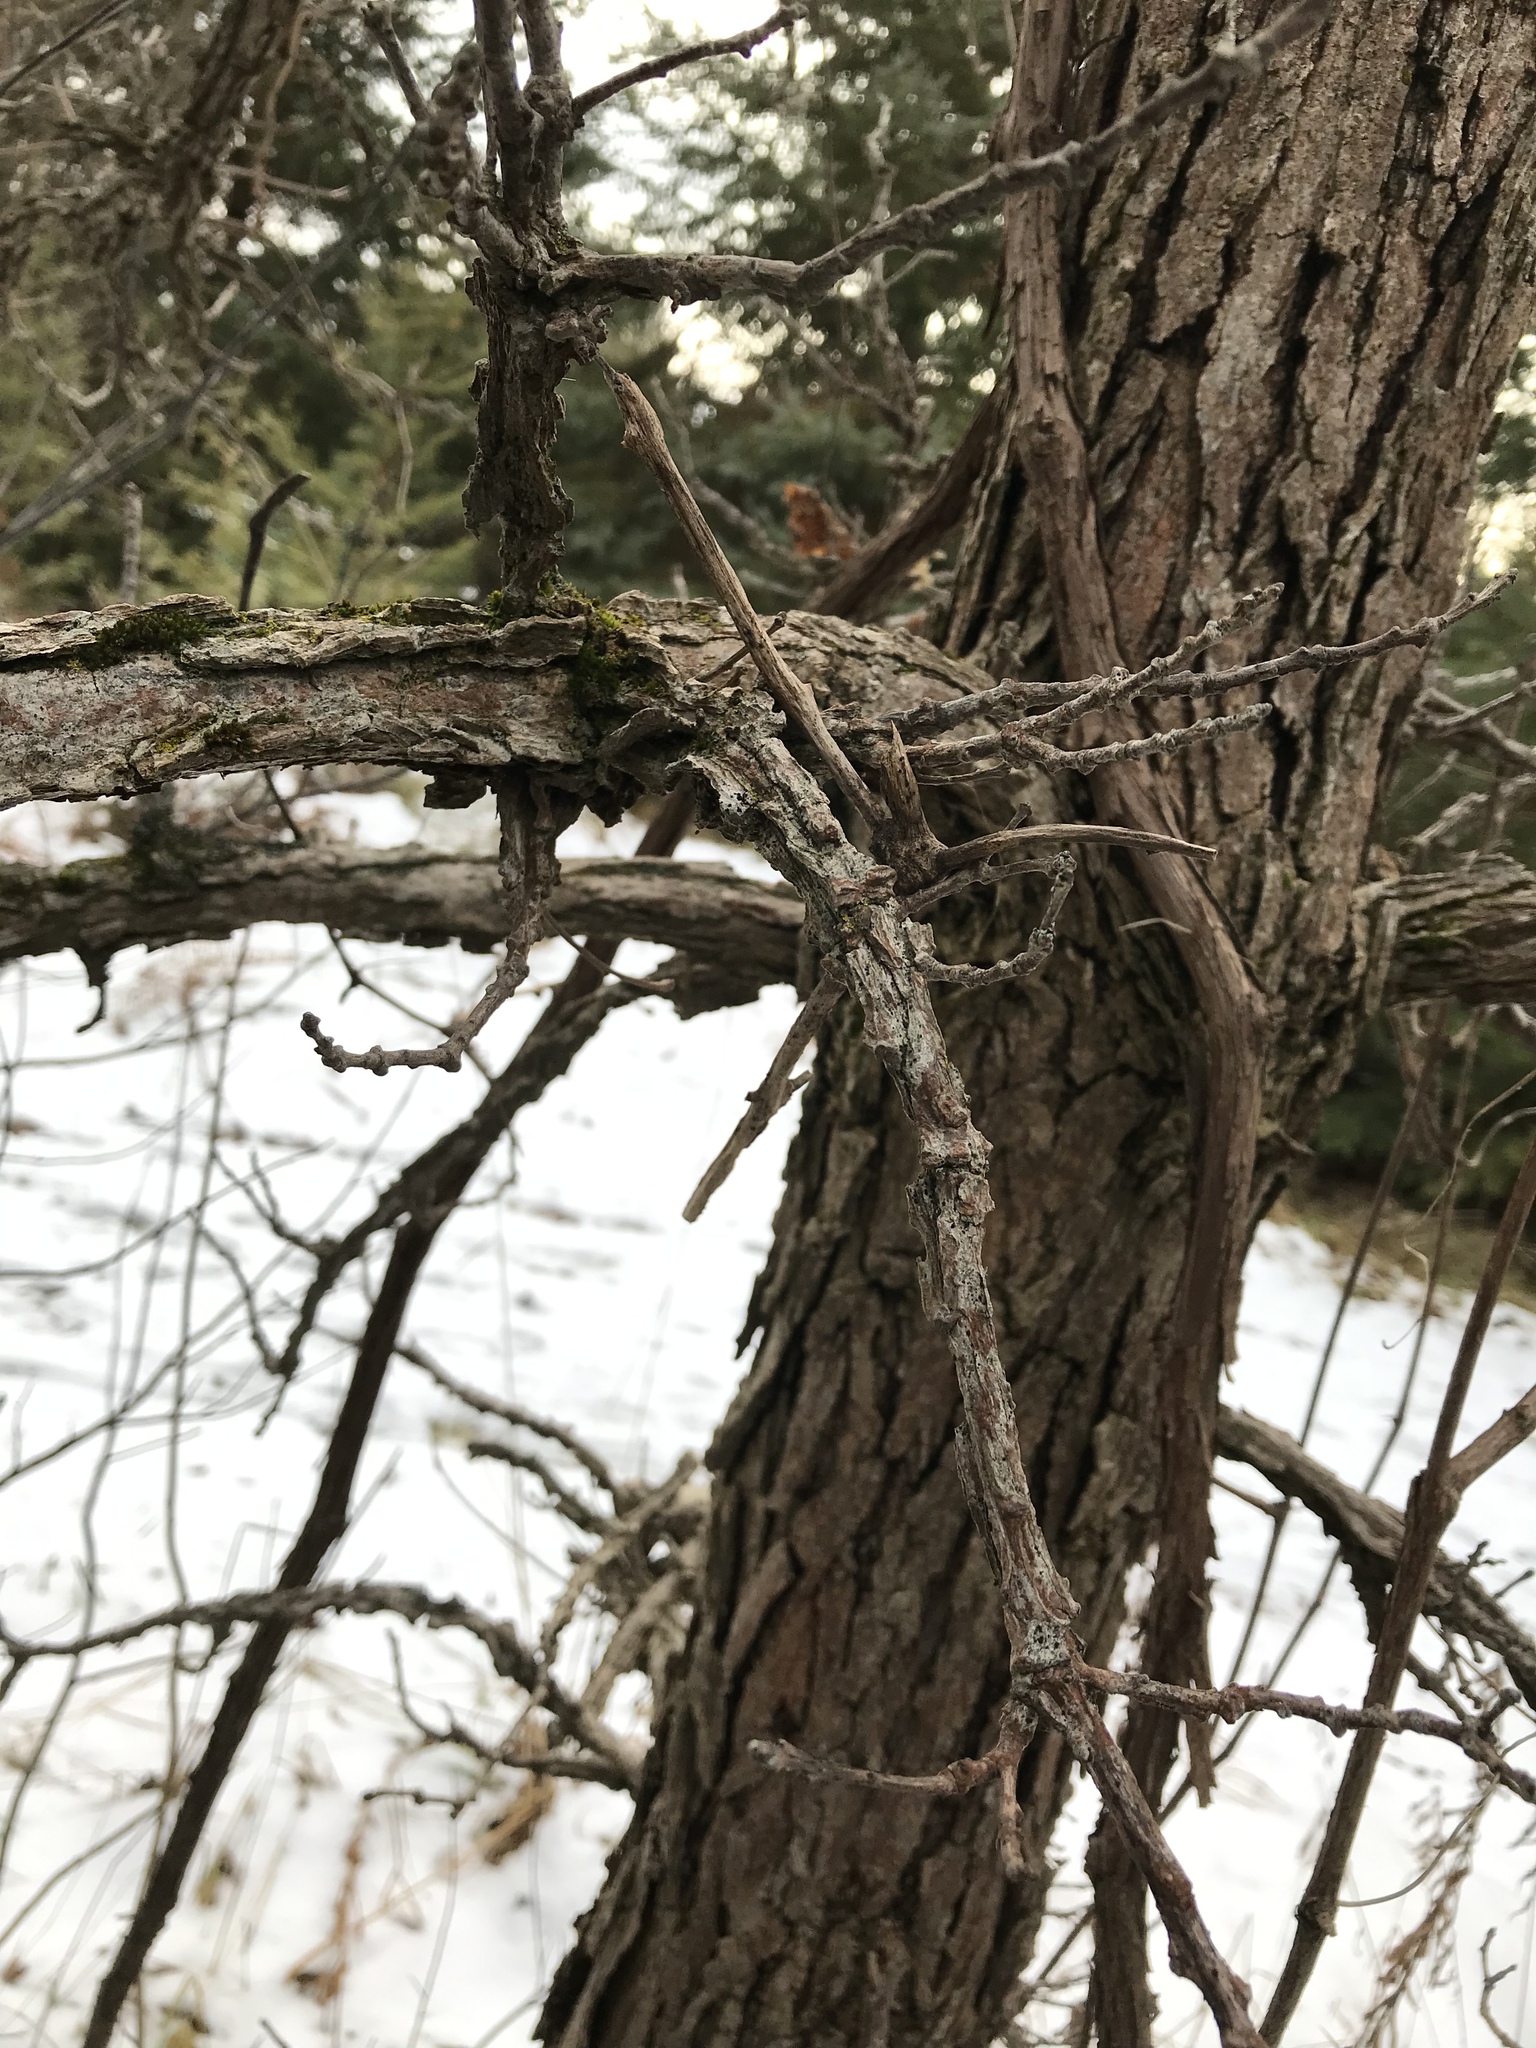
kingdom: Plantae
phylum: Tracheophyta
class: Magnoliopsida
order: Fagales
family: Fagaceae
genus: Quercus
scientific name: Quercus macrocarpa
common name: Bur oak
